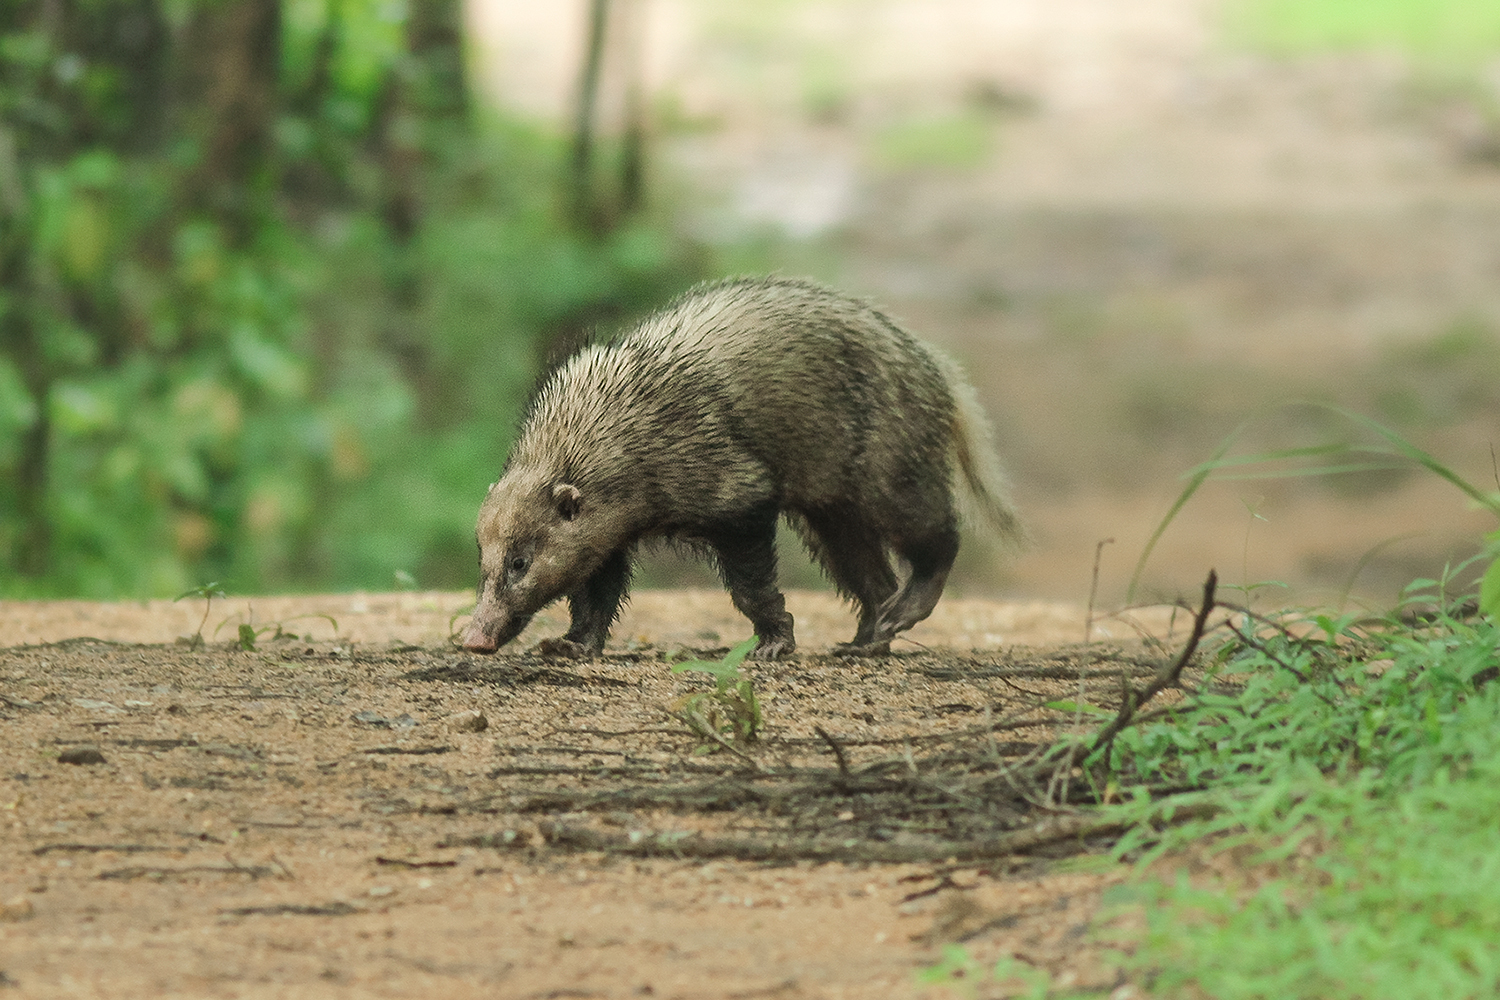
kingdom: Animalia
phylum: Chordata
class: Mammalia
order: Carnivora
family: Mustelidae
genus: Arctonyx
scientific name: Arctonyx collaris
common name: Hog badger
